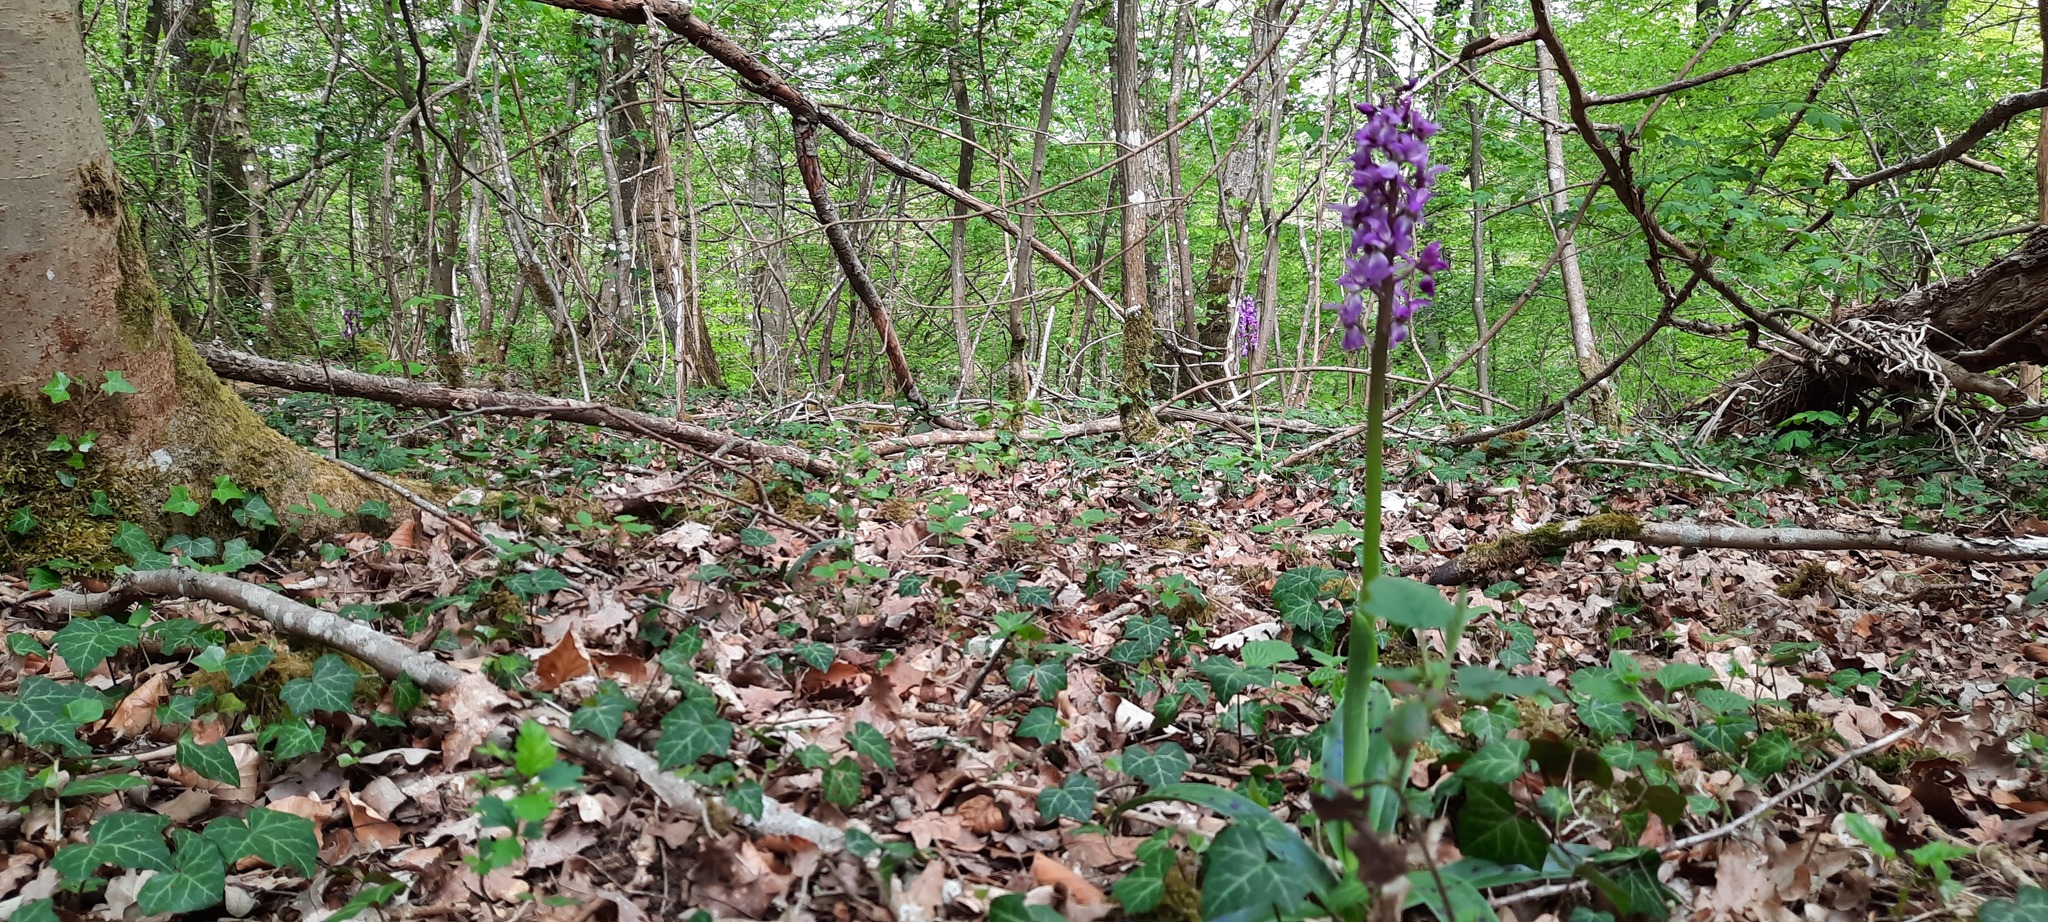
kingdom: Plantae
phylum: Tracheophyta
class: Liliopsida
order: Asparagales
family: Orchidaceae
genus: Orchis
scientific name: Orchis mascula
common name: Early-purple orchid
